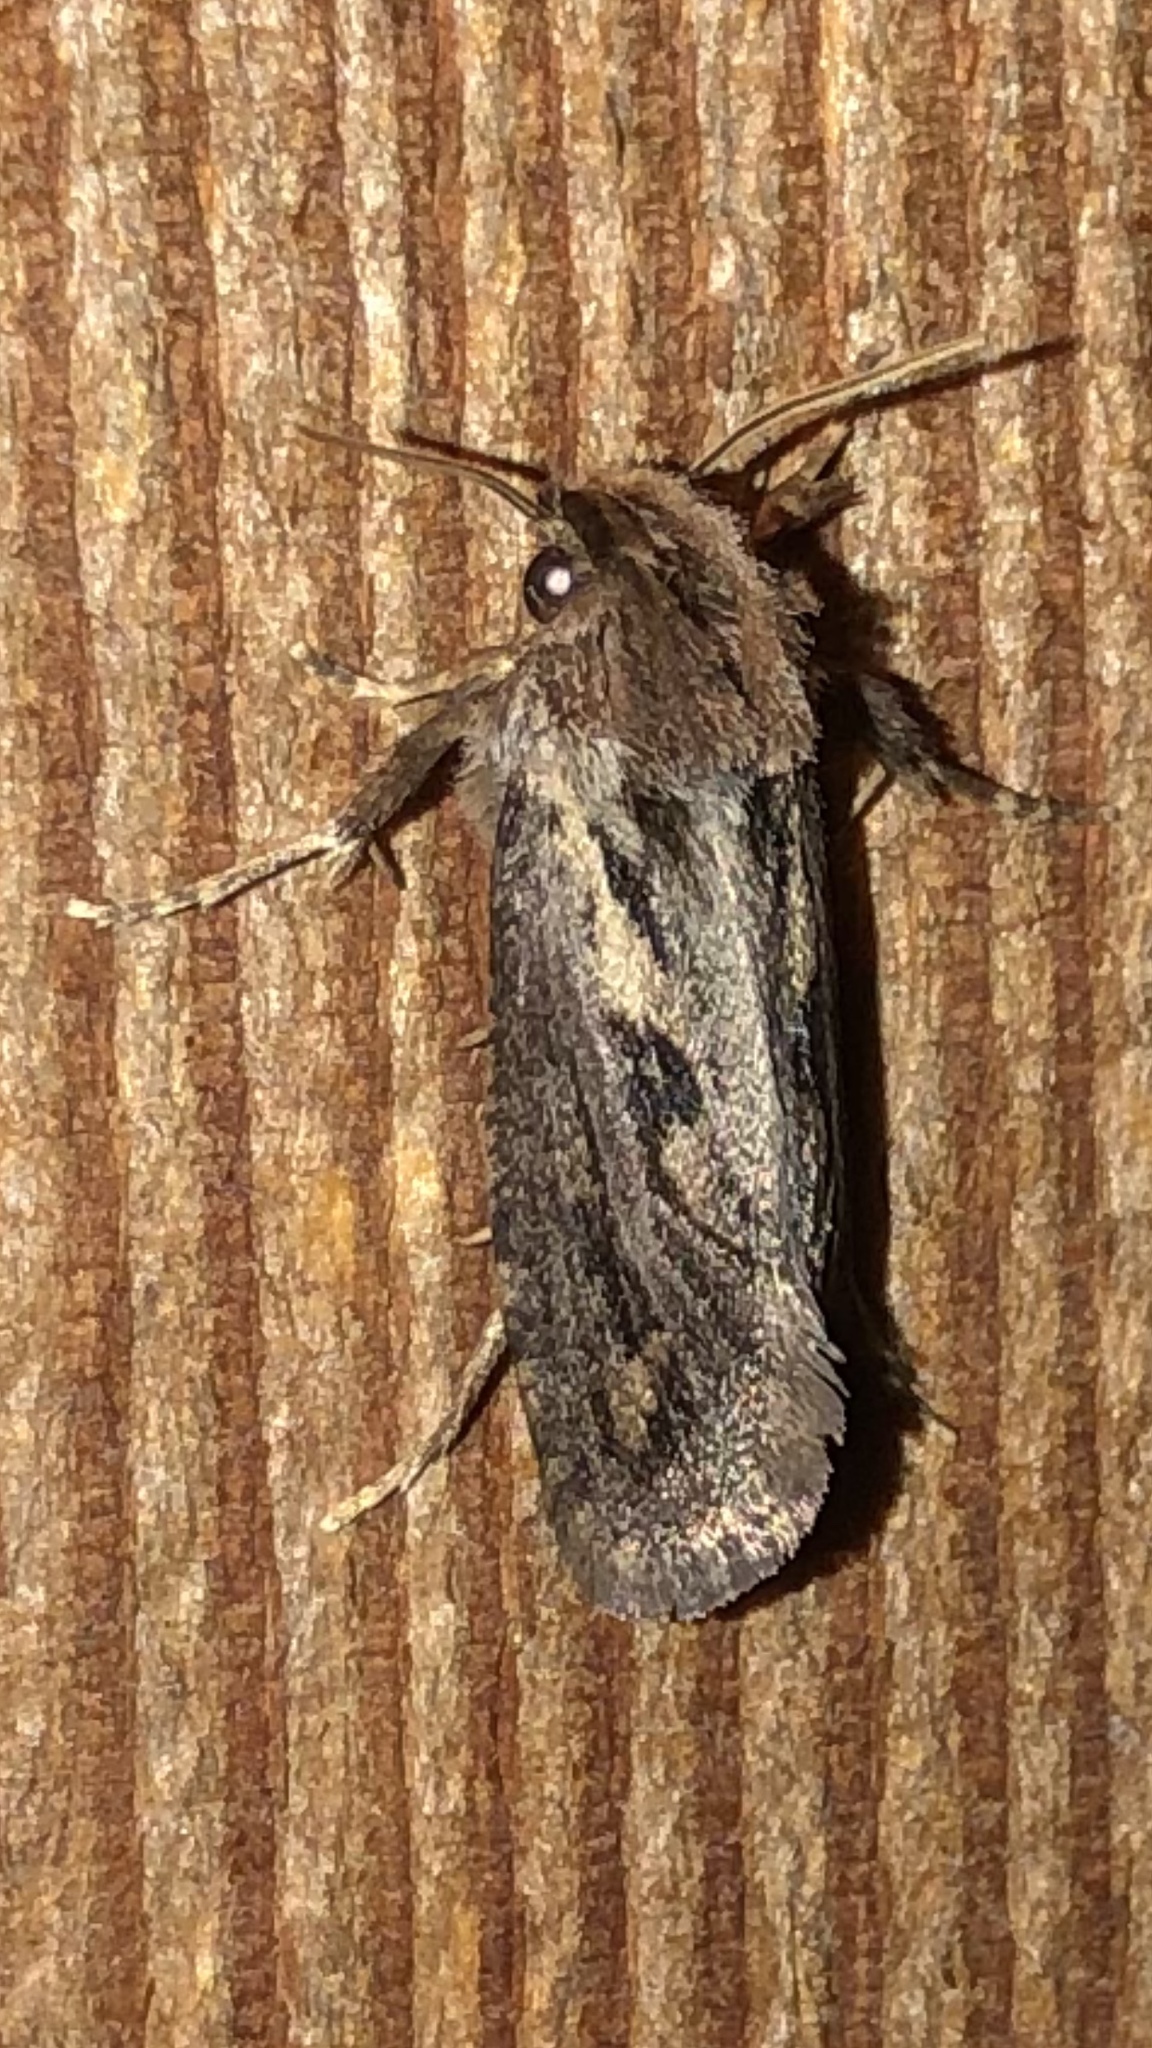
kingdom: Animalia
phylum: Arthropoda
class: Insecta
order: Lepidoptera
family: Tineidae
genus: Acrolophus
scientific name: Acrolophus popeanella
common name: Clemens' grass tubeworm moth
